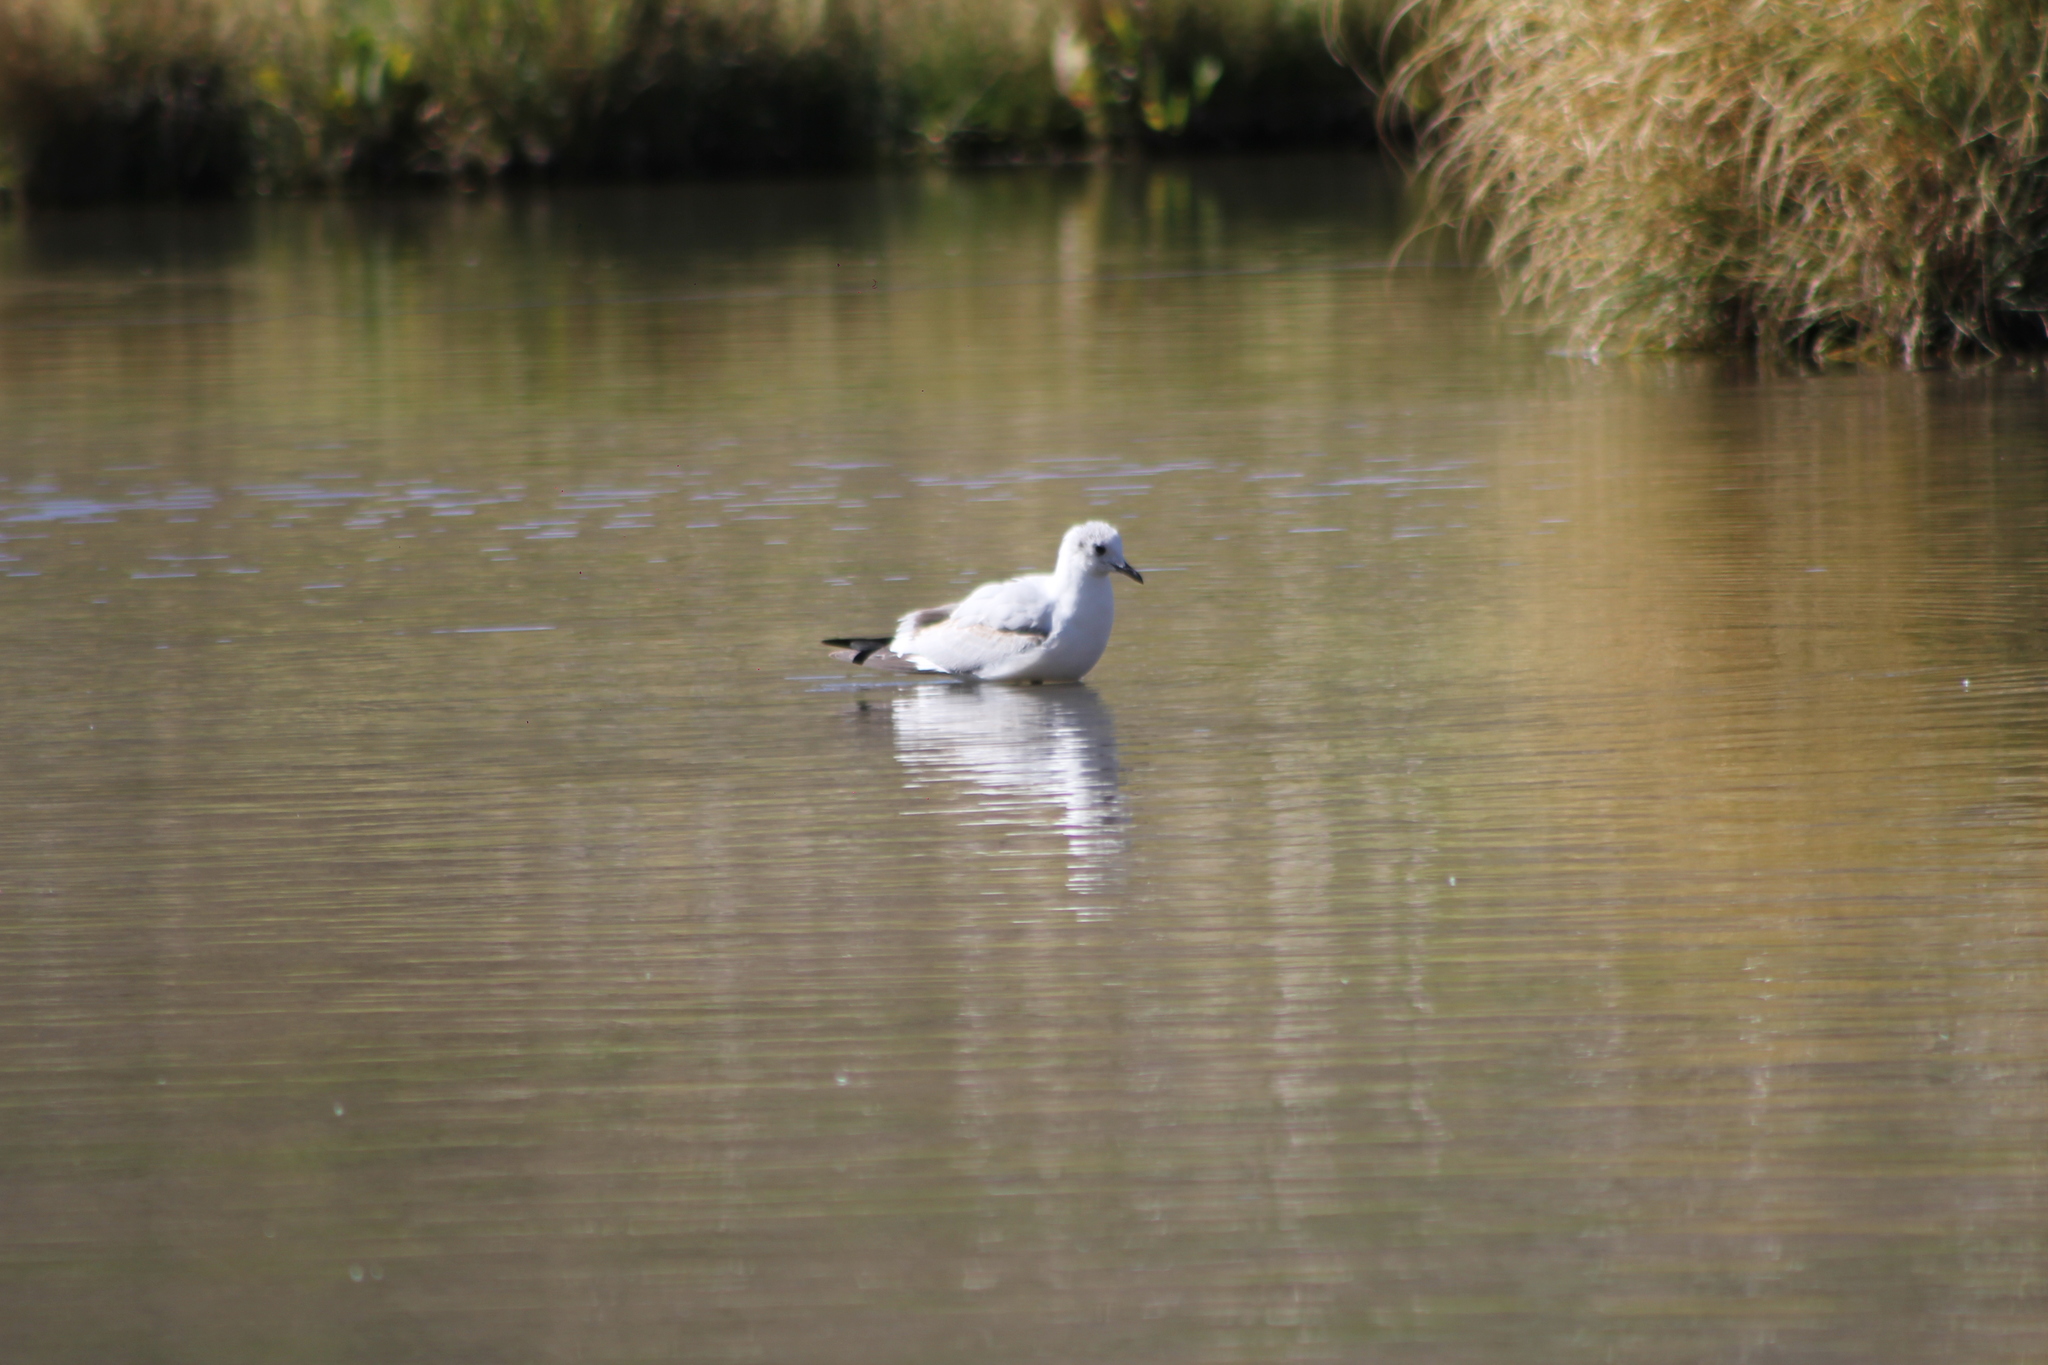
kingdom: Animalia
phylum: Chordata
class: Aves
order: Charadriiformes
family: Laridae
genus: Chroicocephalus
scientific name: Chroicocephalus serranus
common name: Andean gull
